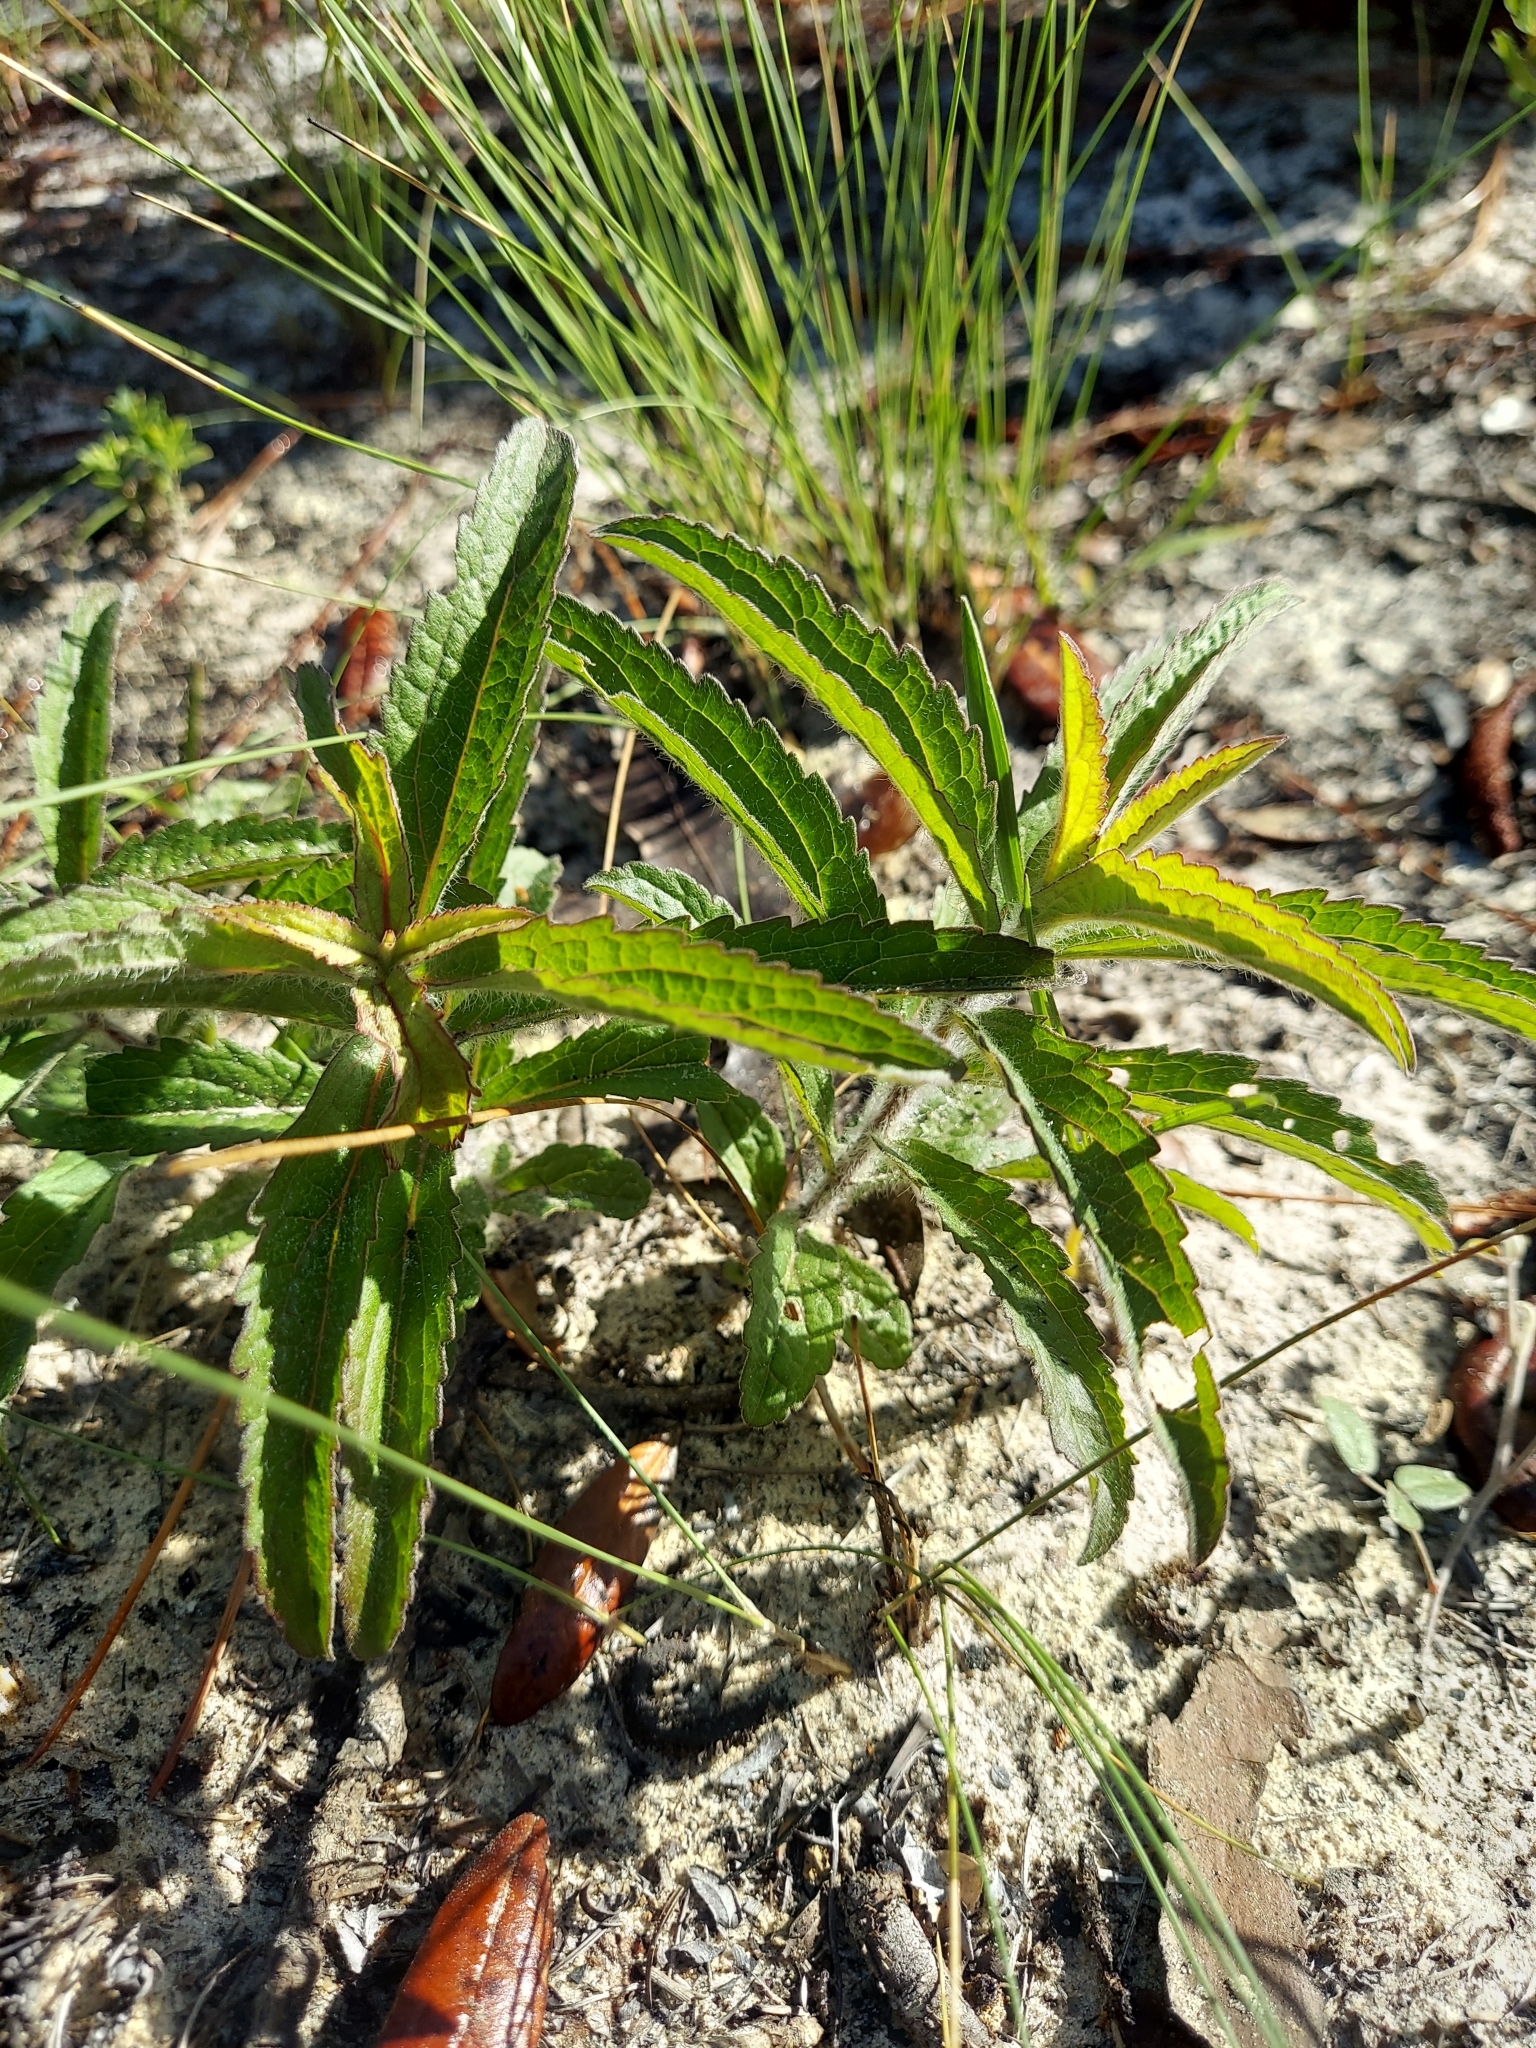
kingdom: Plantae
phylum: Tracheophyta
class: Magnoliopsida
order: Asterales
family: Asteraceae
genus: Eupatorium
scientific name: Eupatorium album
